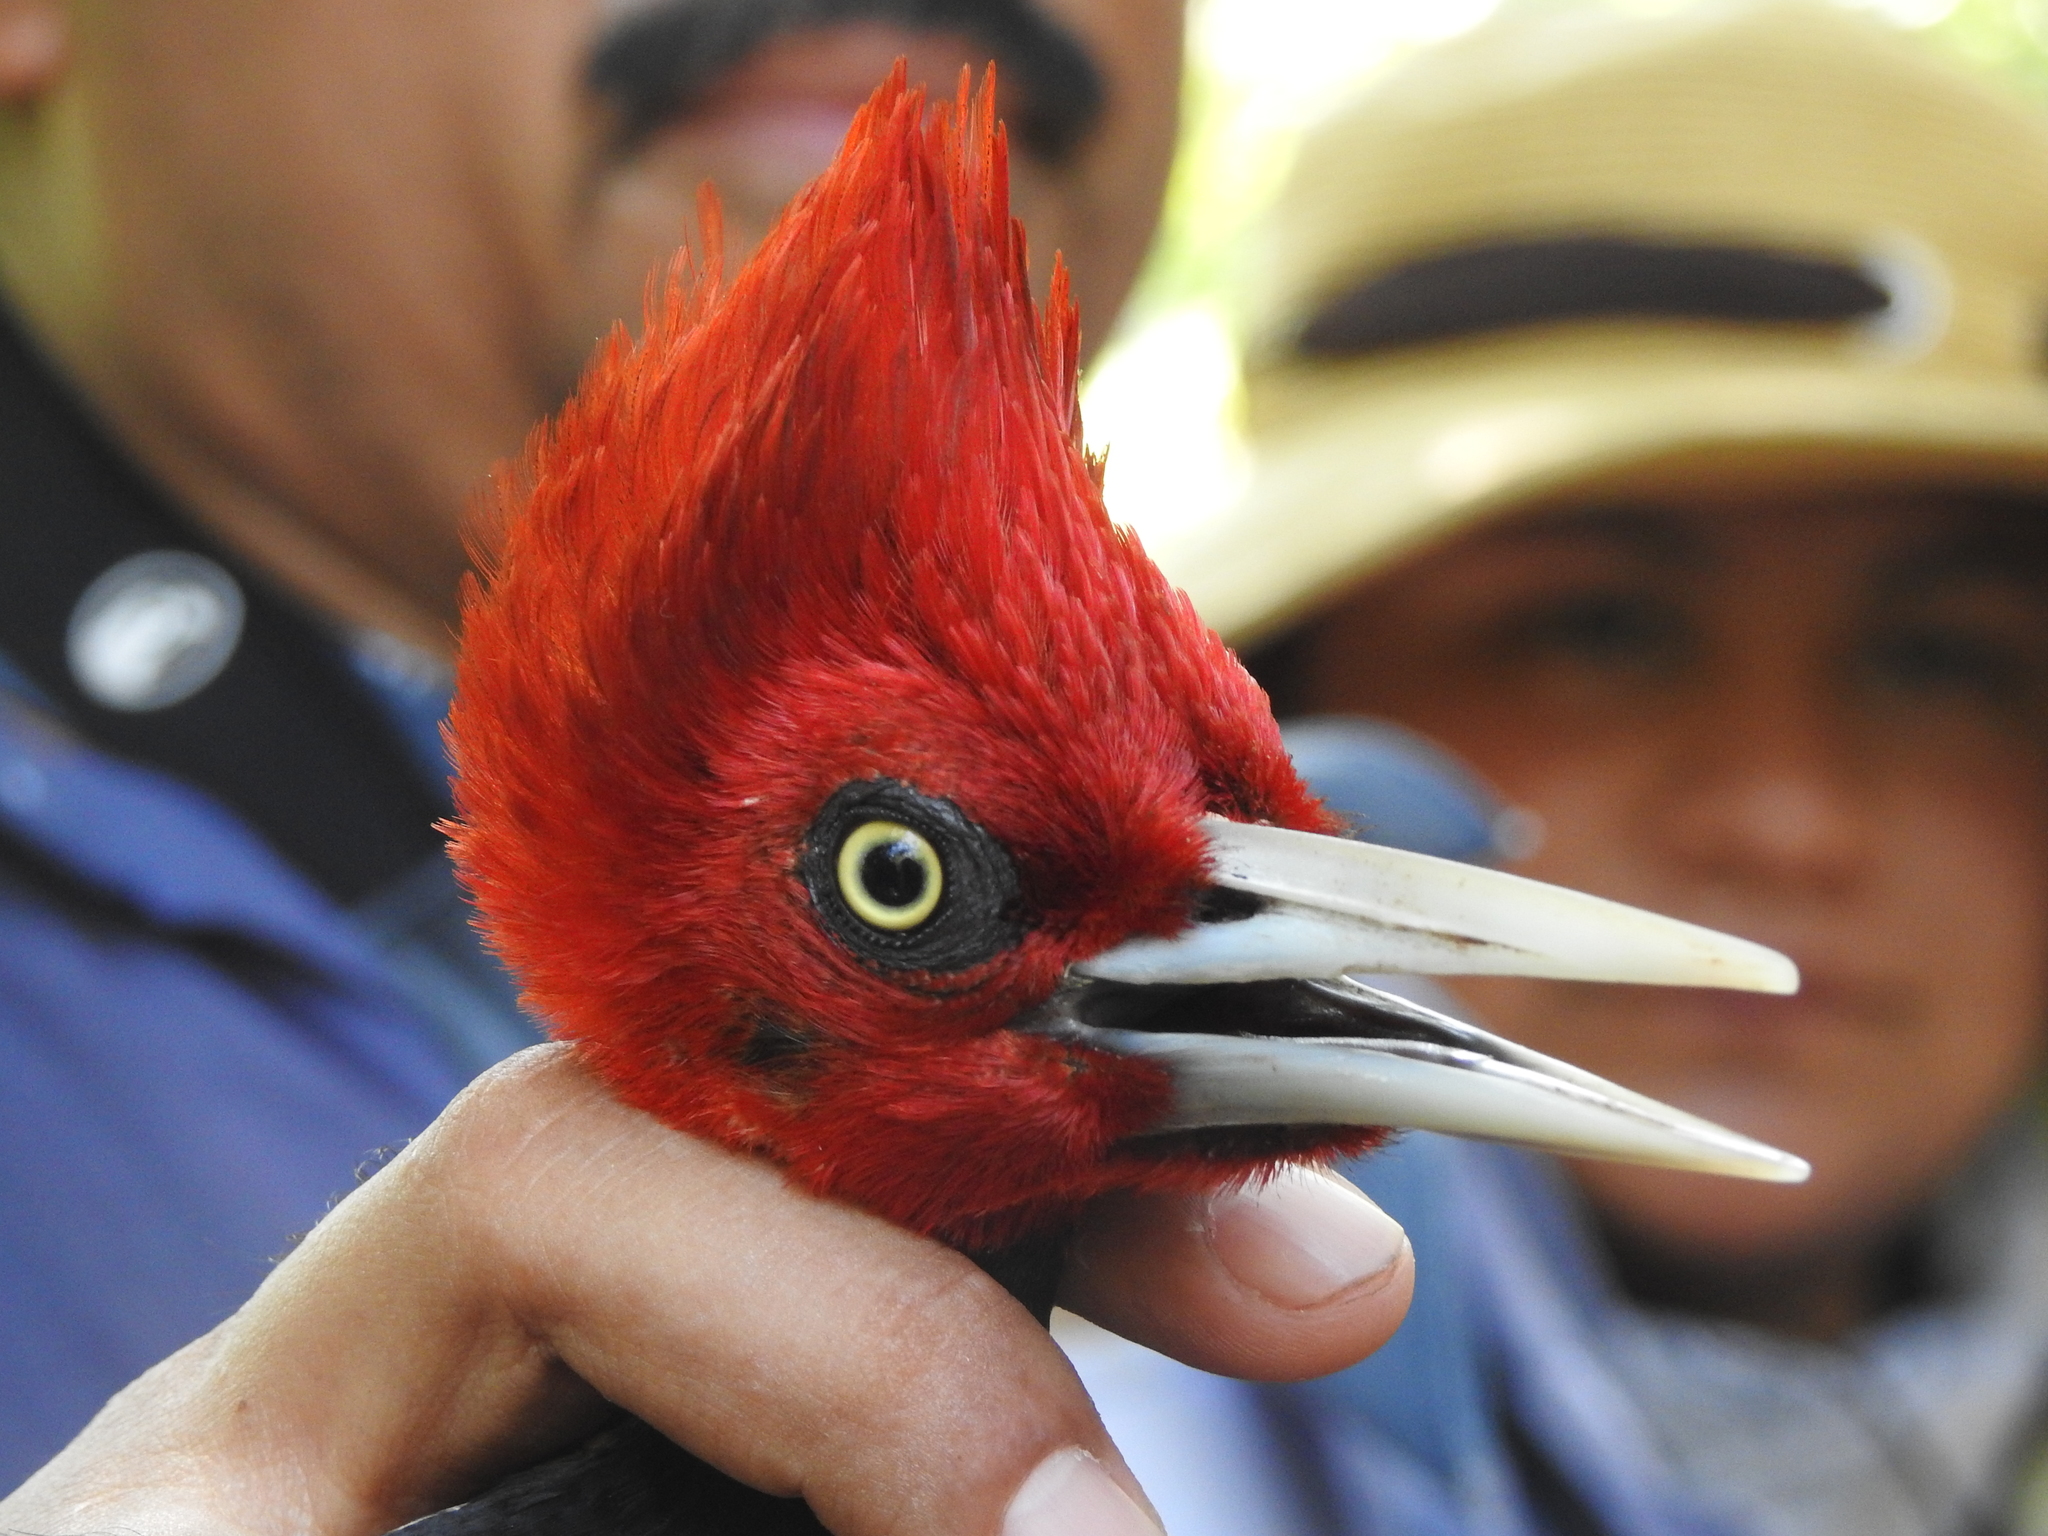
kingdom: Animalia
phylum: Chordata
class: Aves
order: Piciformes
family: Picidae
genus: Campephilus
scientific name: Campephilus guatemalensis
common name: Pale-billed woodpecker
